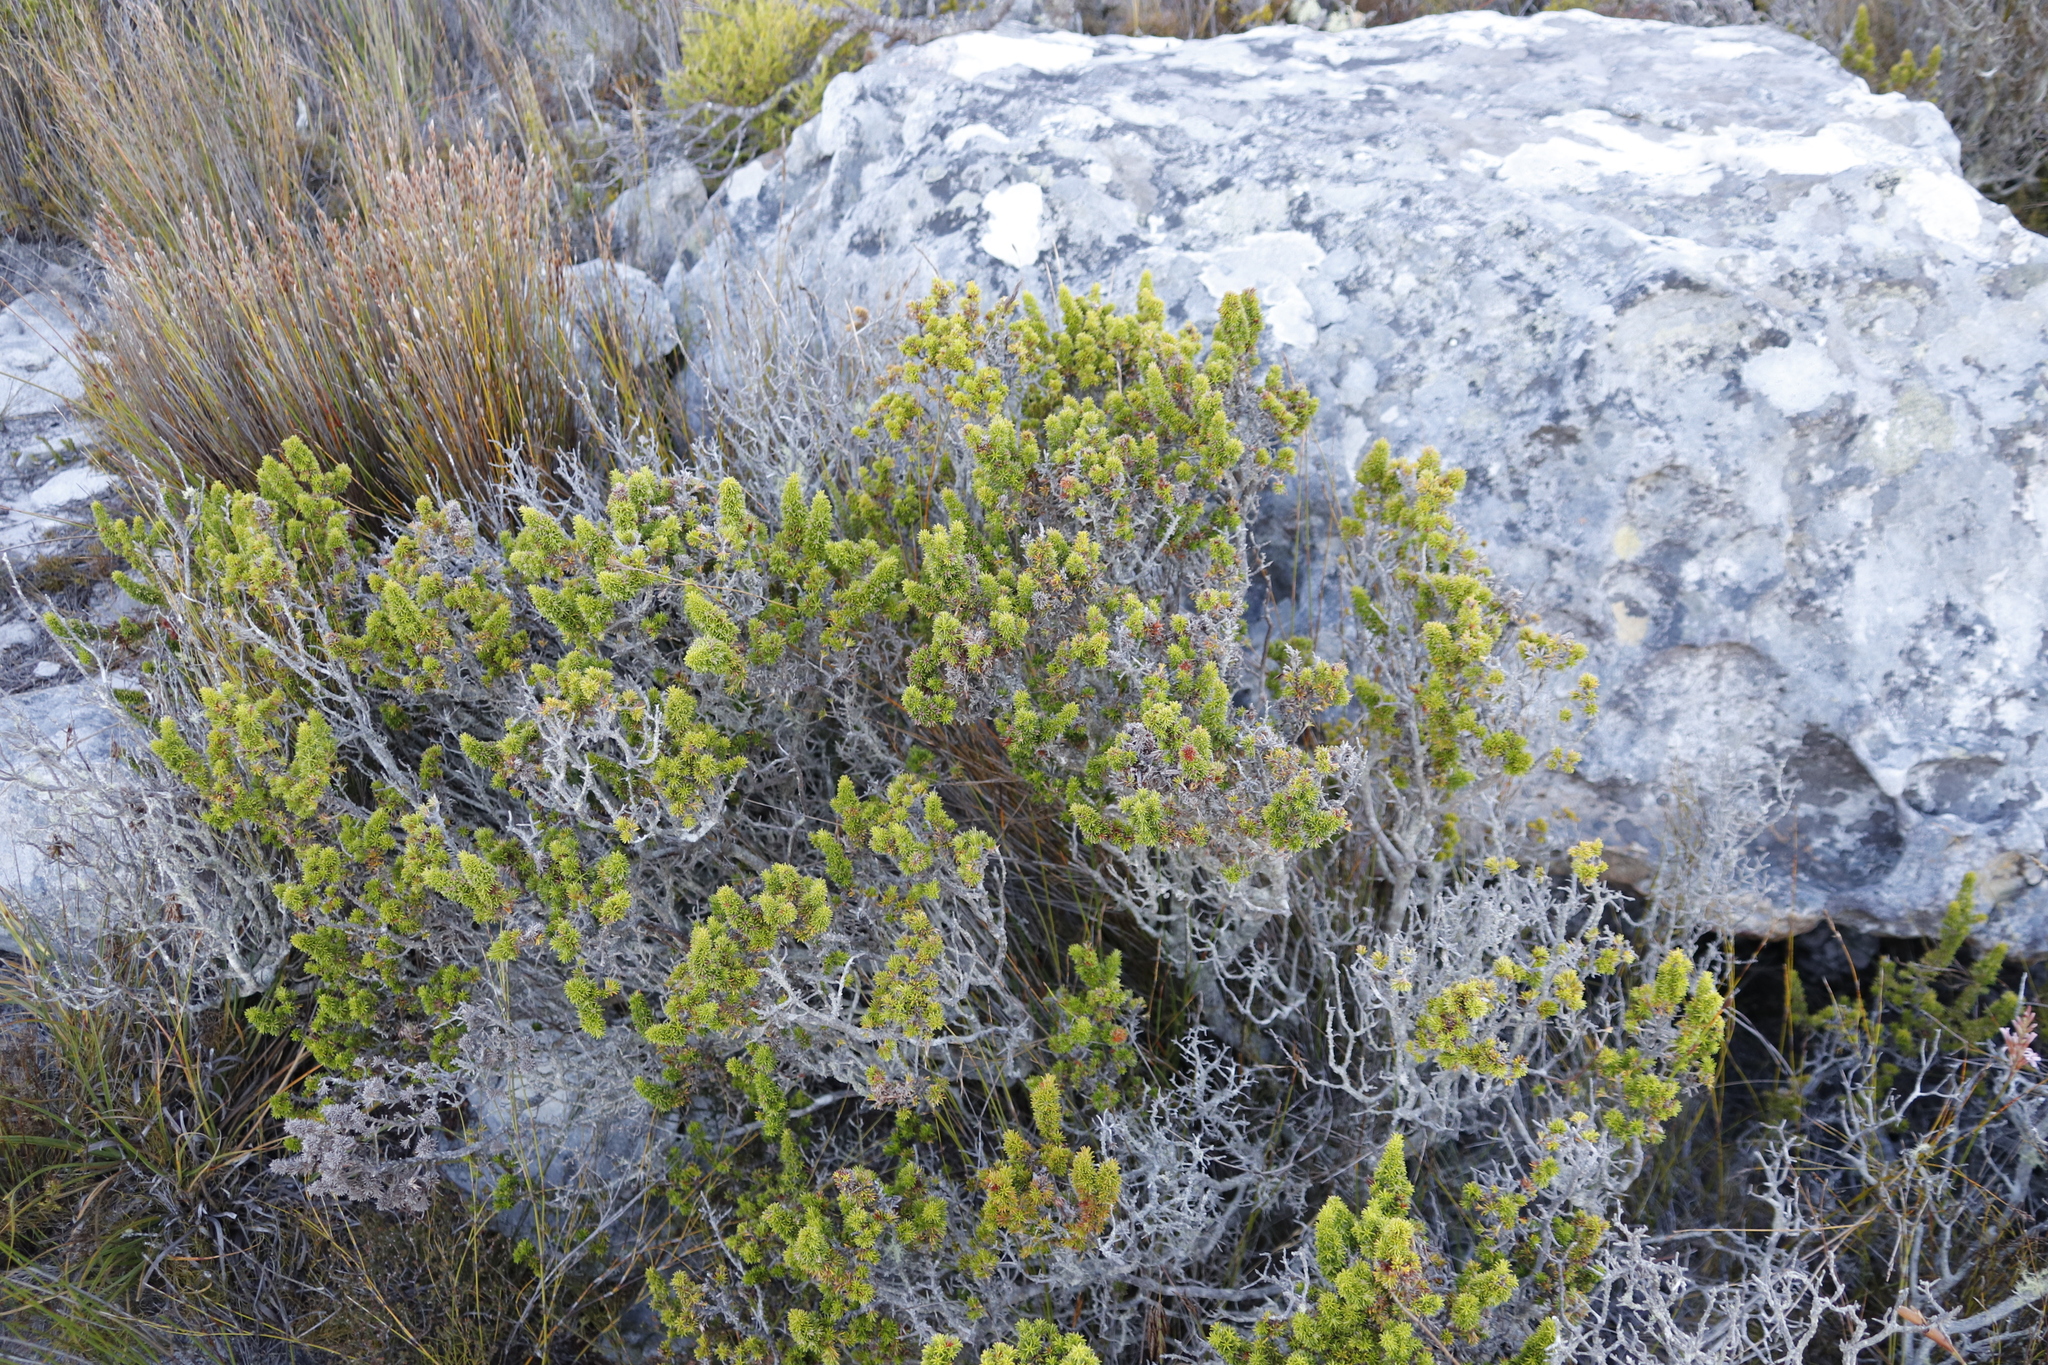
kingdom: Plantae
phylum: Tracheophyta
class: Magnoliopsida
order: Ericales
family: Ericaceae
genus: Erica
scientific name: Erica coccinea
